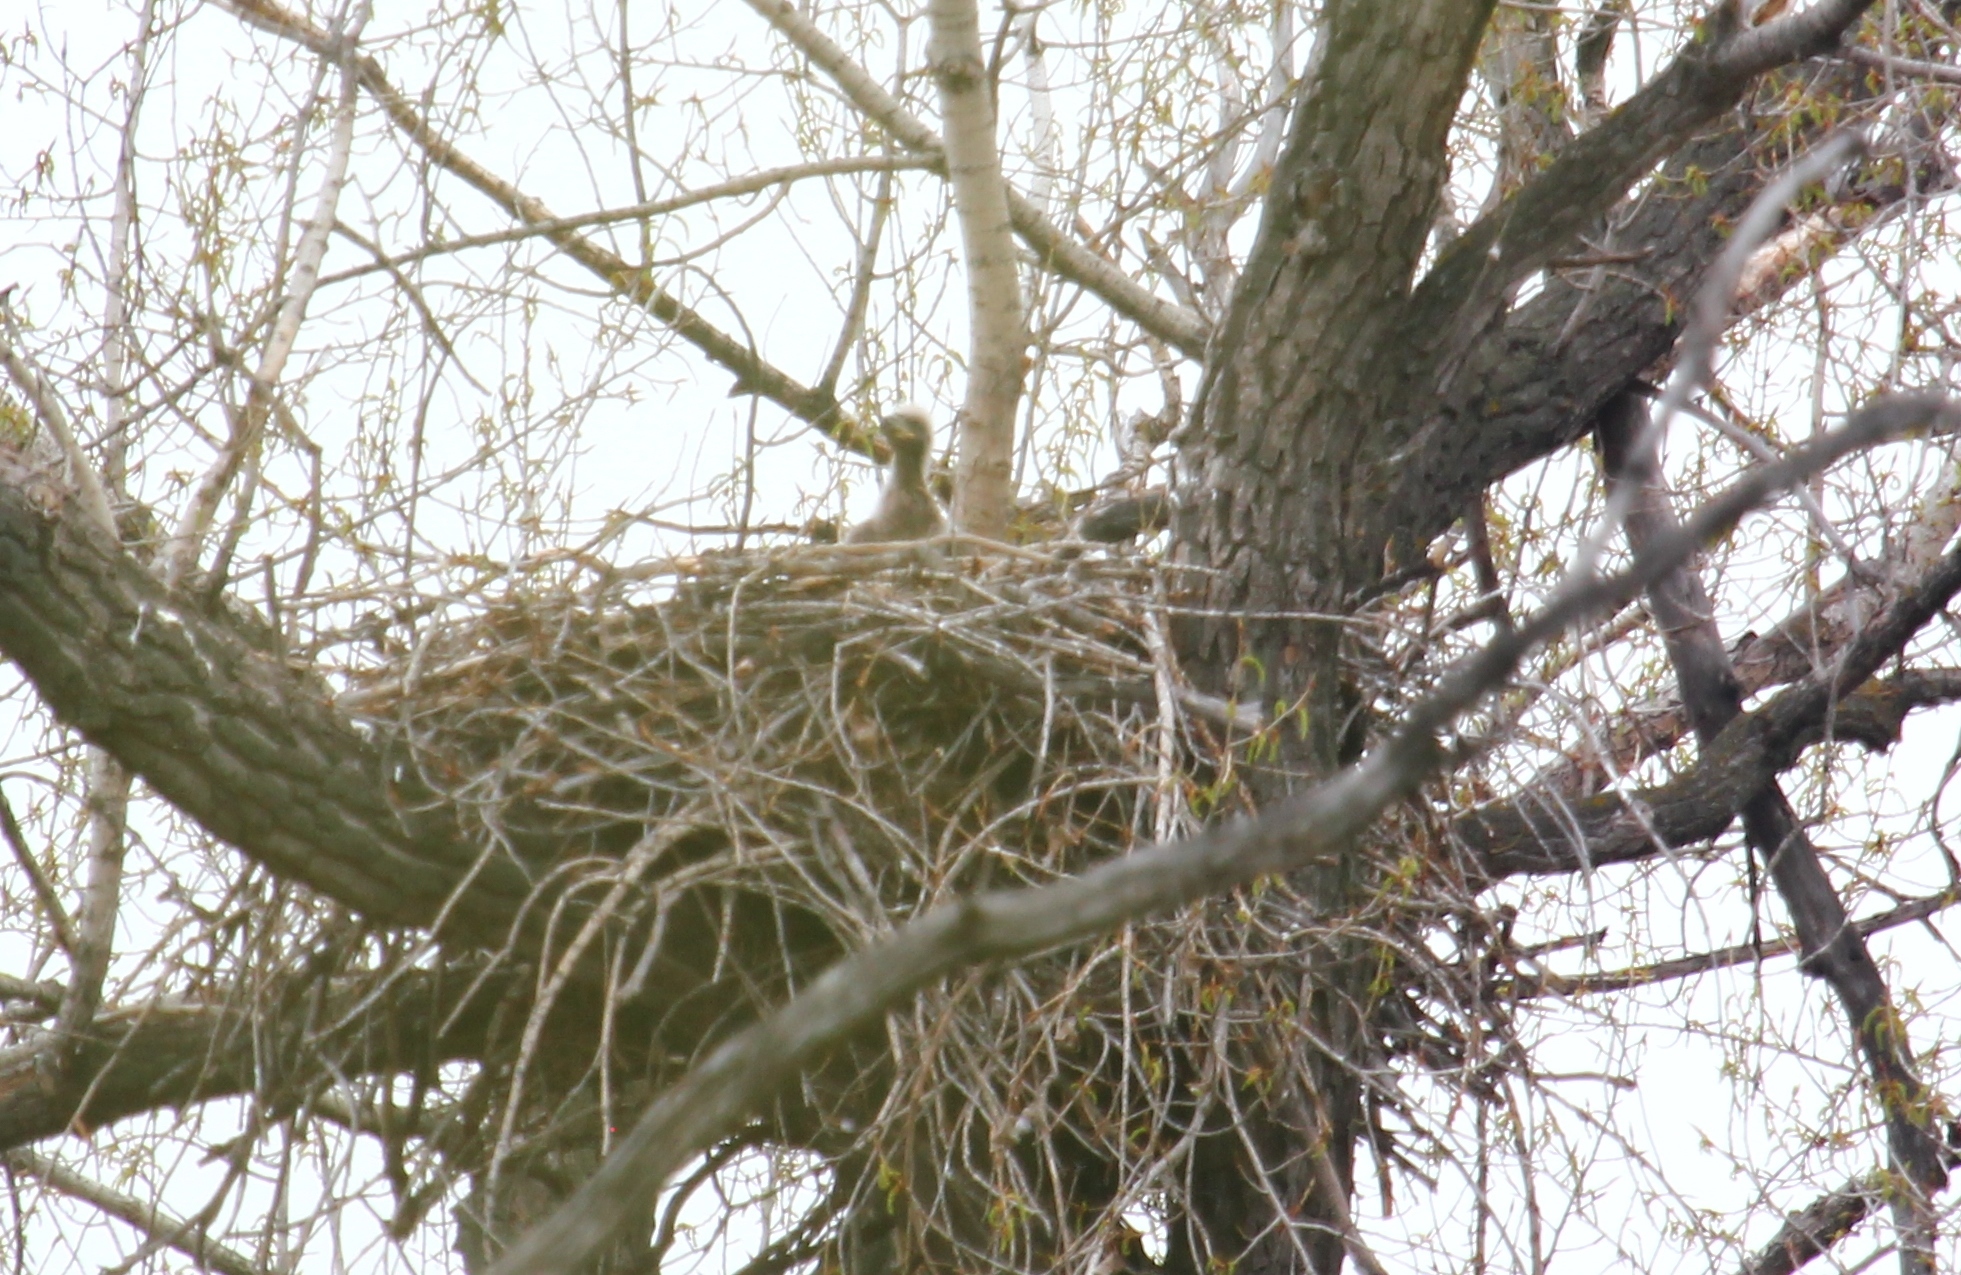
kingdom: Animalia
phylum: Chordata
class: Aves
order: Accipitriformes
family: Accipitridae
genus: Haliaeetus
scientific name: Haliaeetus albicilla
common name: White-tailed eagle
